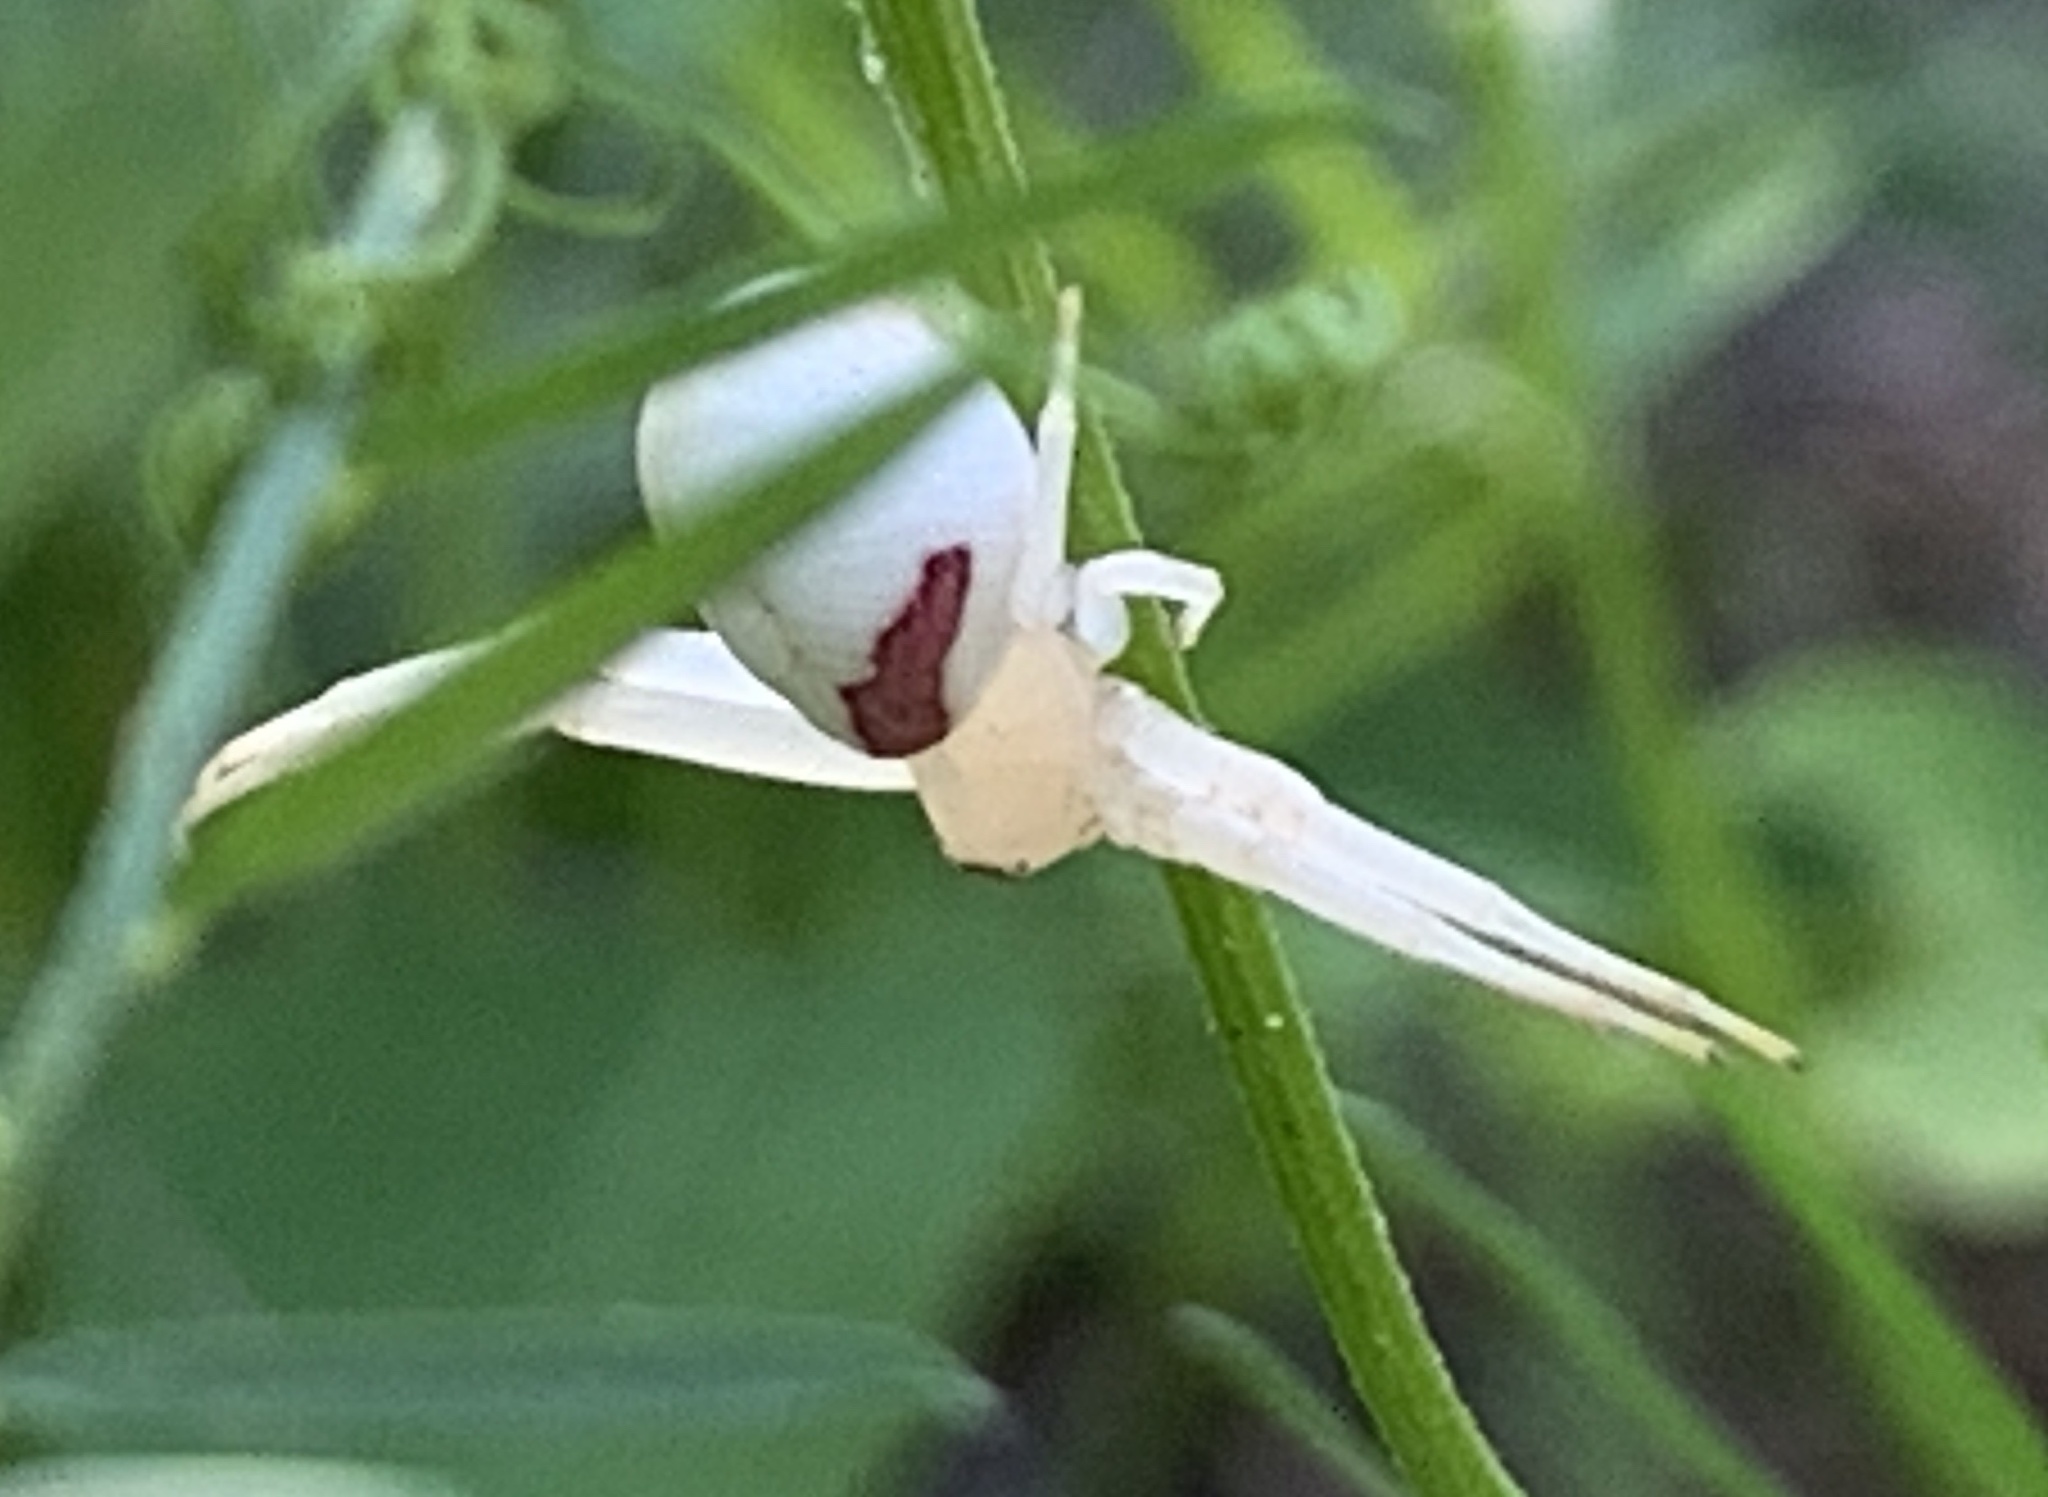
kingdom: Animalia
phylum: Arthropoda
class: Arachnida
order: Araneae
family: Thomisidae
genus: Misumena
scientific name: Misumena vatia
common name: Goldenrod crab spider
